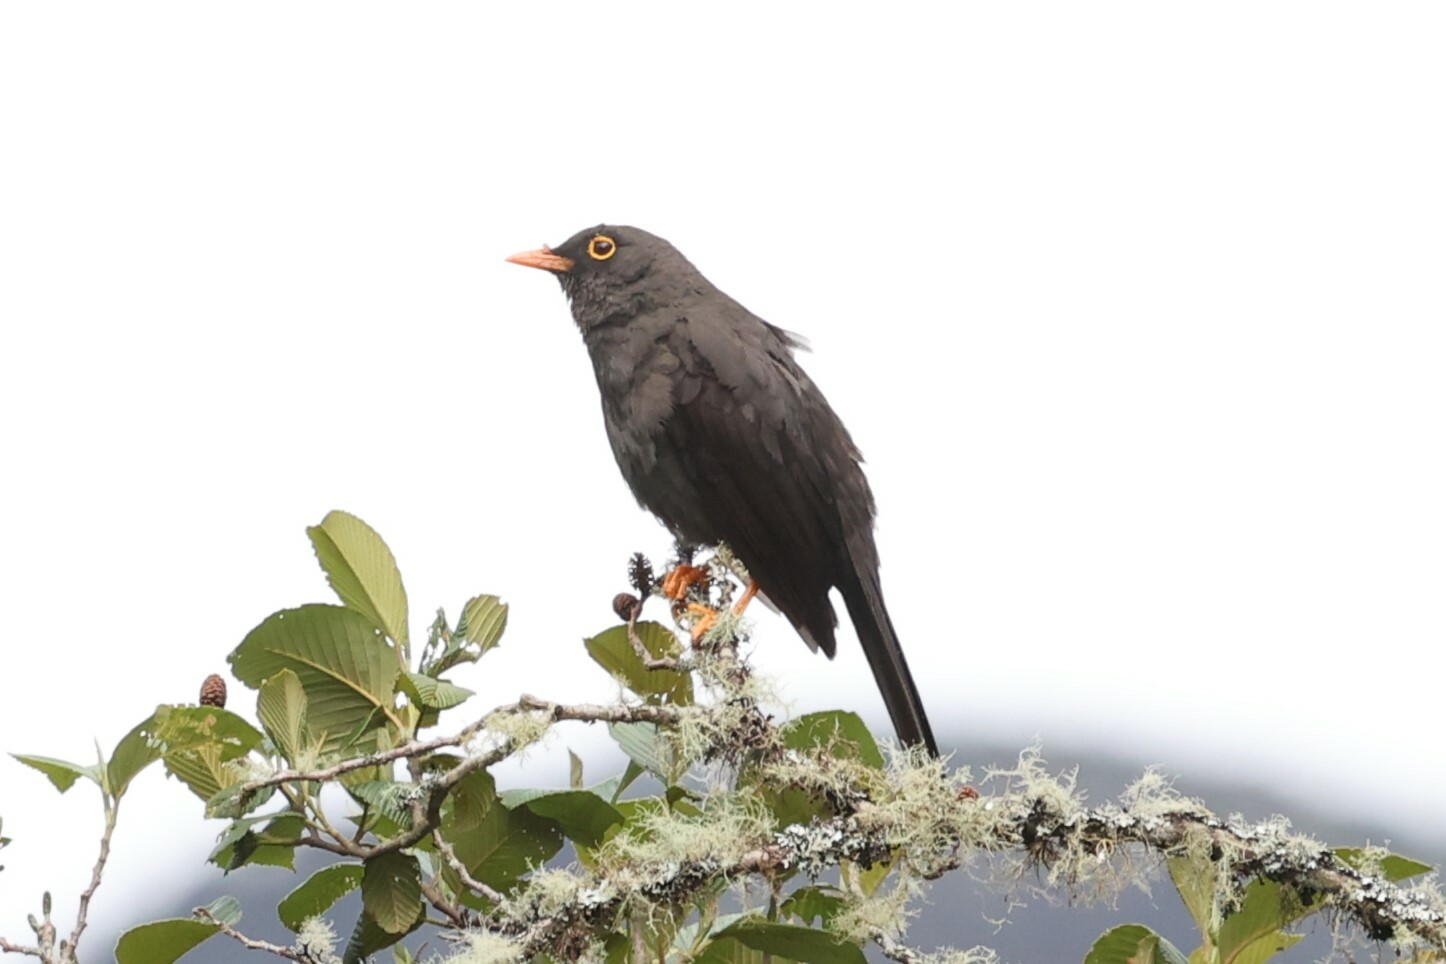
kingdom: Animalia
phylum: Chordata
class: Aves
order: Passeriformes
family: Turdidae
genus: Turdus
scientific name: Turdus fuscater
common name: Great thrush
